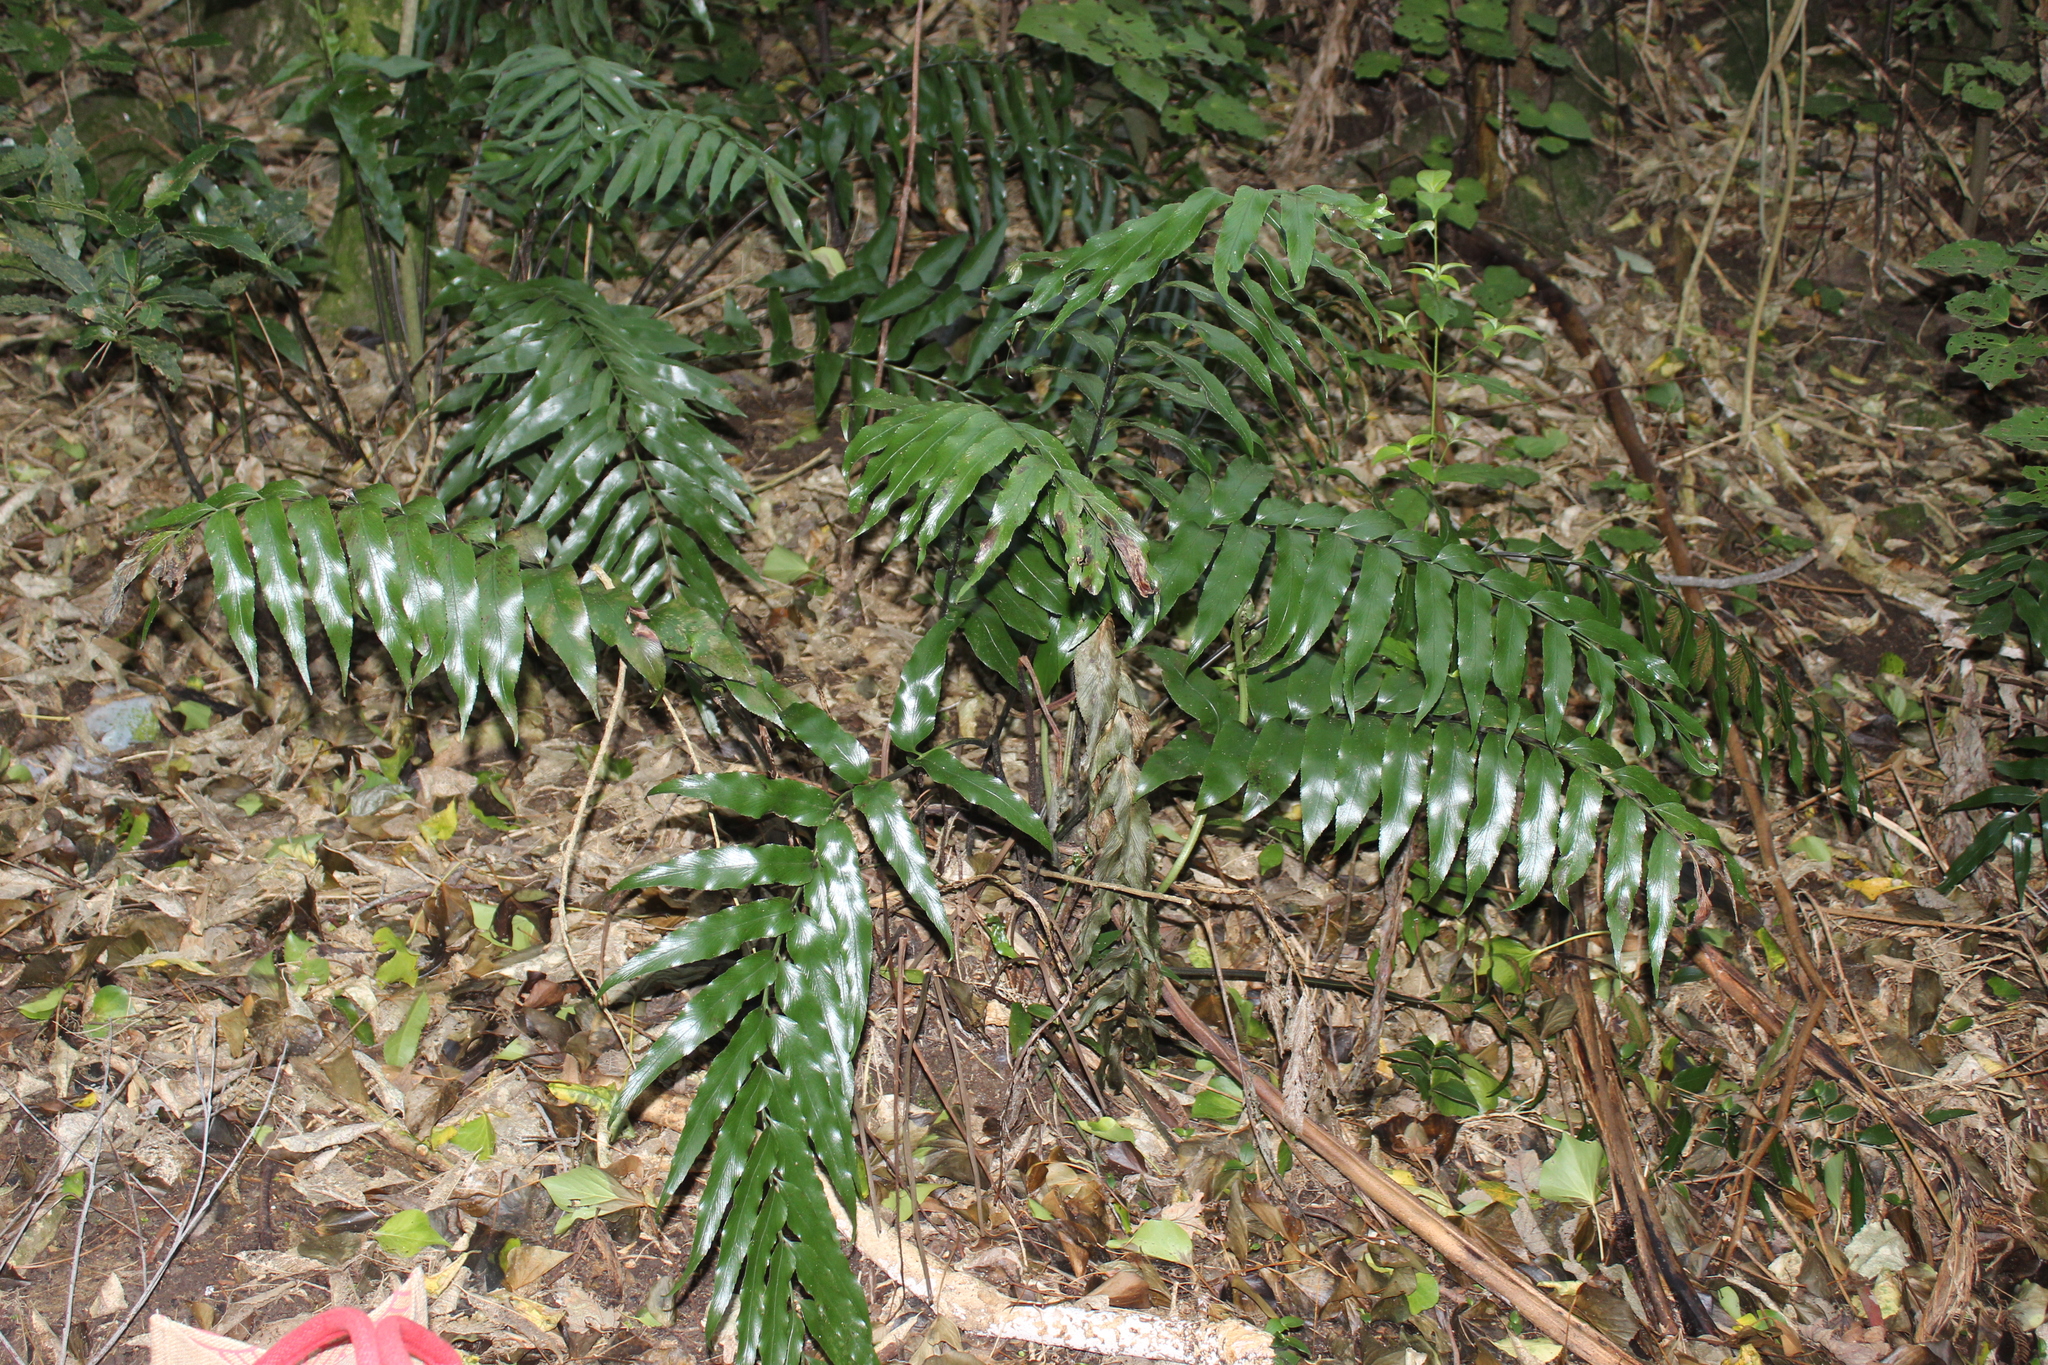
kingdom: Plantae
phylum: Tracheophyta
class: Polypodiopsida
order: Polypodiales
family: Aspleniaceae
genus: Asplenium
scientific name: Asplenium oblongifolium
